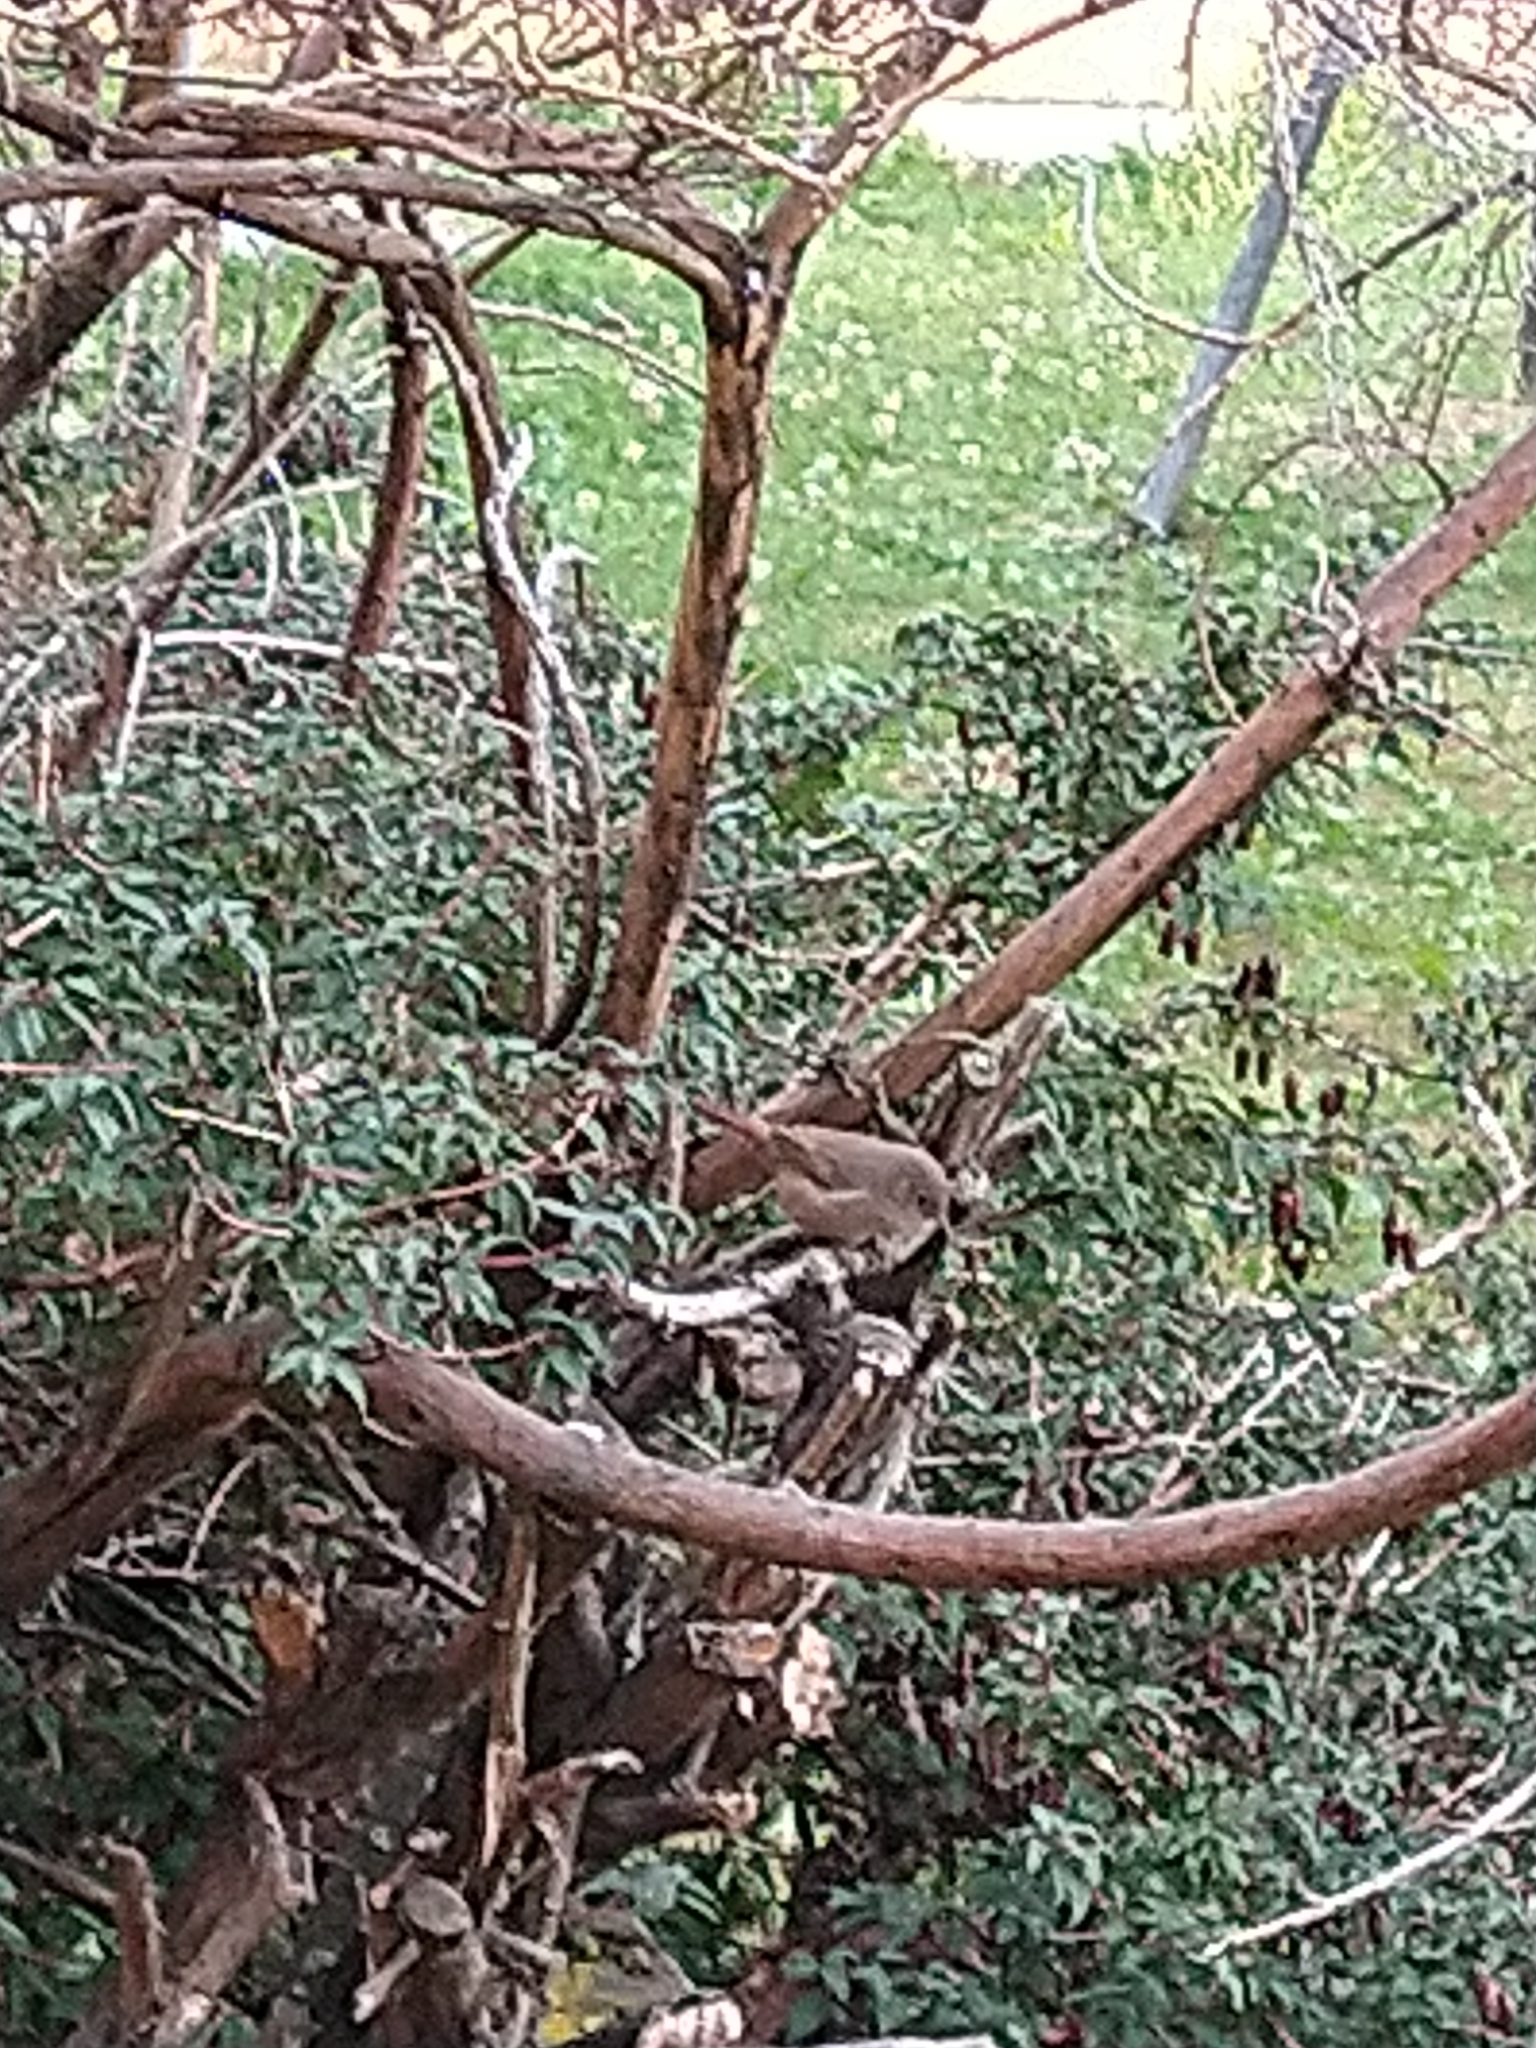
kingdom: Animalia
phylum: Chordata
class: Aves
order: Passeriformes
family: Troglodytidae
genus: Troglodytes
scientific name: Troglodytes aedon
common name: House wren
